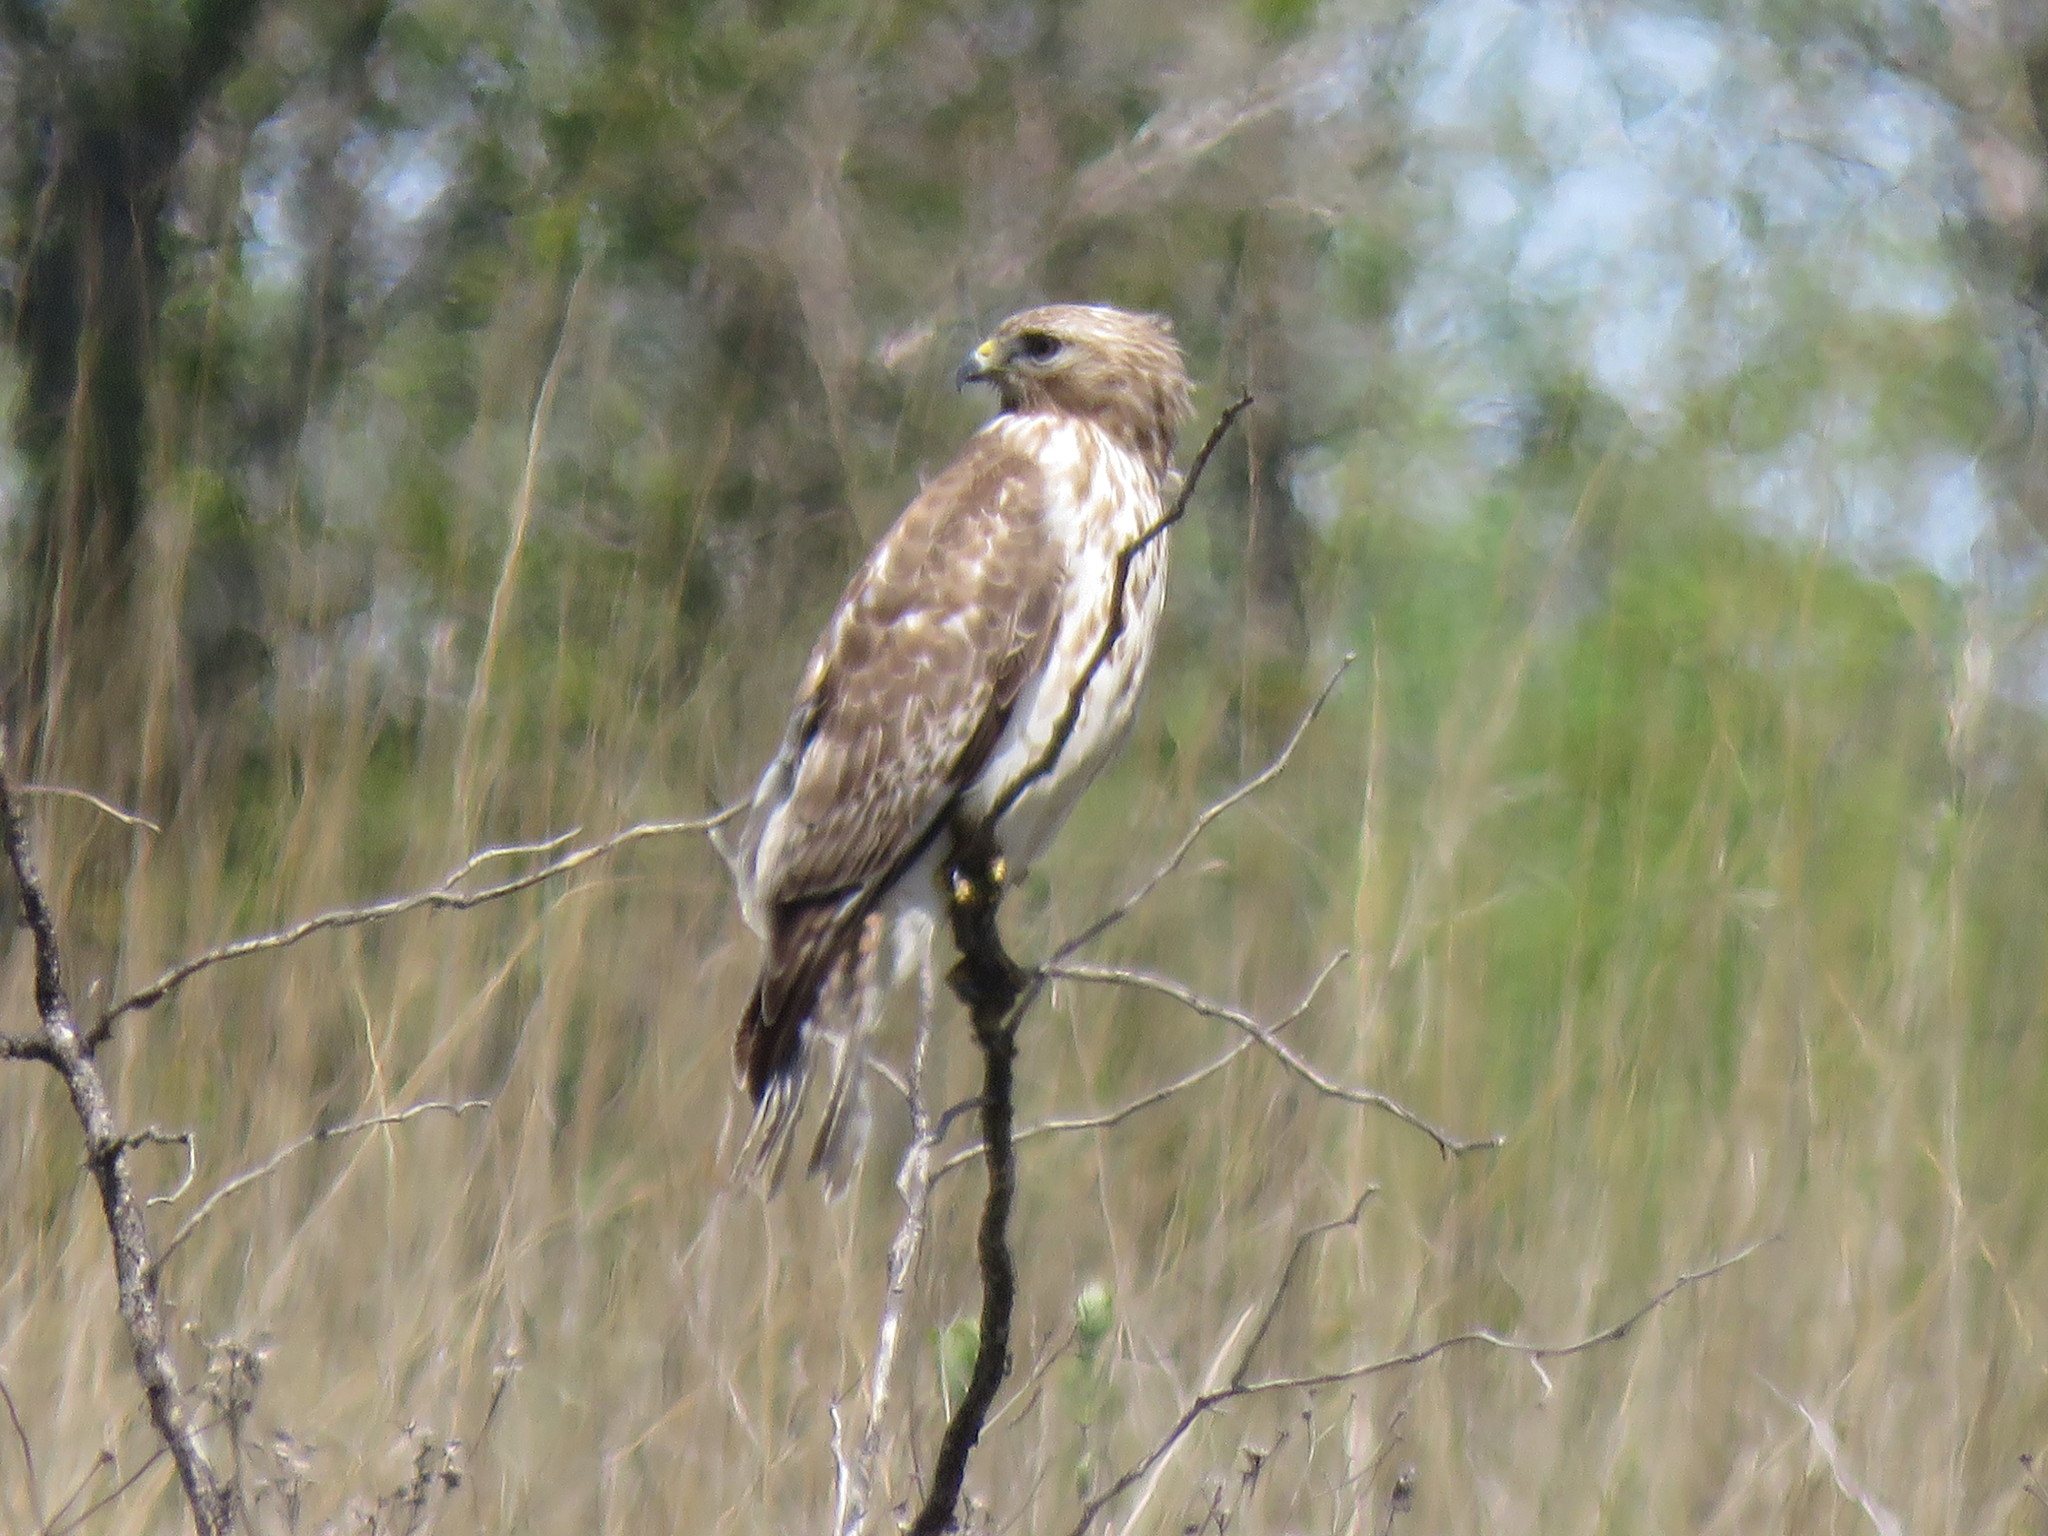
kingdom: Animalia
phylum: Chordata
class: Aves
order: Accipitriformes
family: Accipitridae
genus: Buteo
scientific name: Buteo lineatus
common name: Red-shouldered hawk
